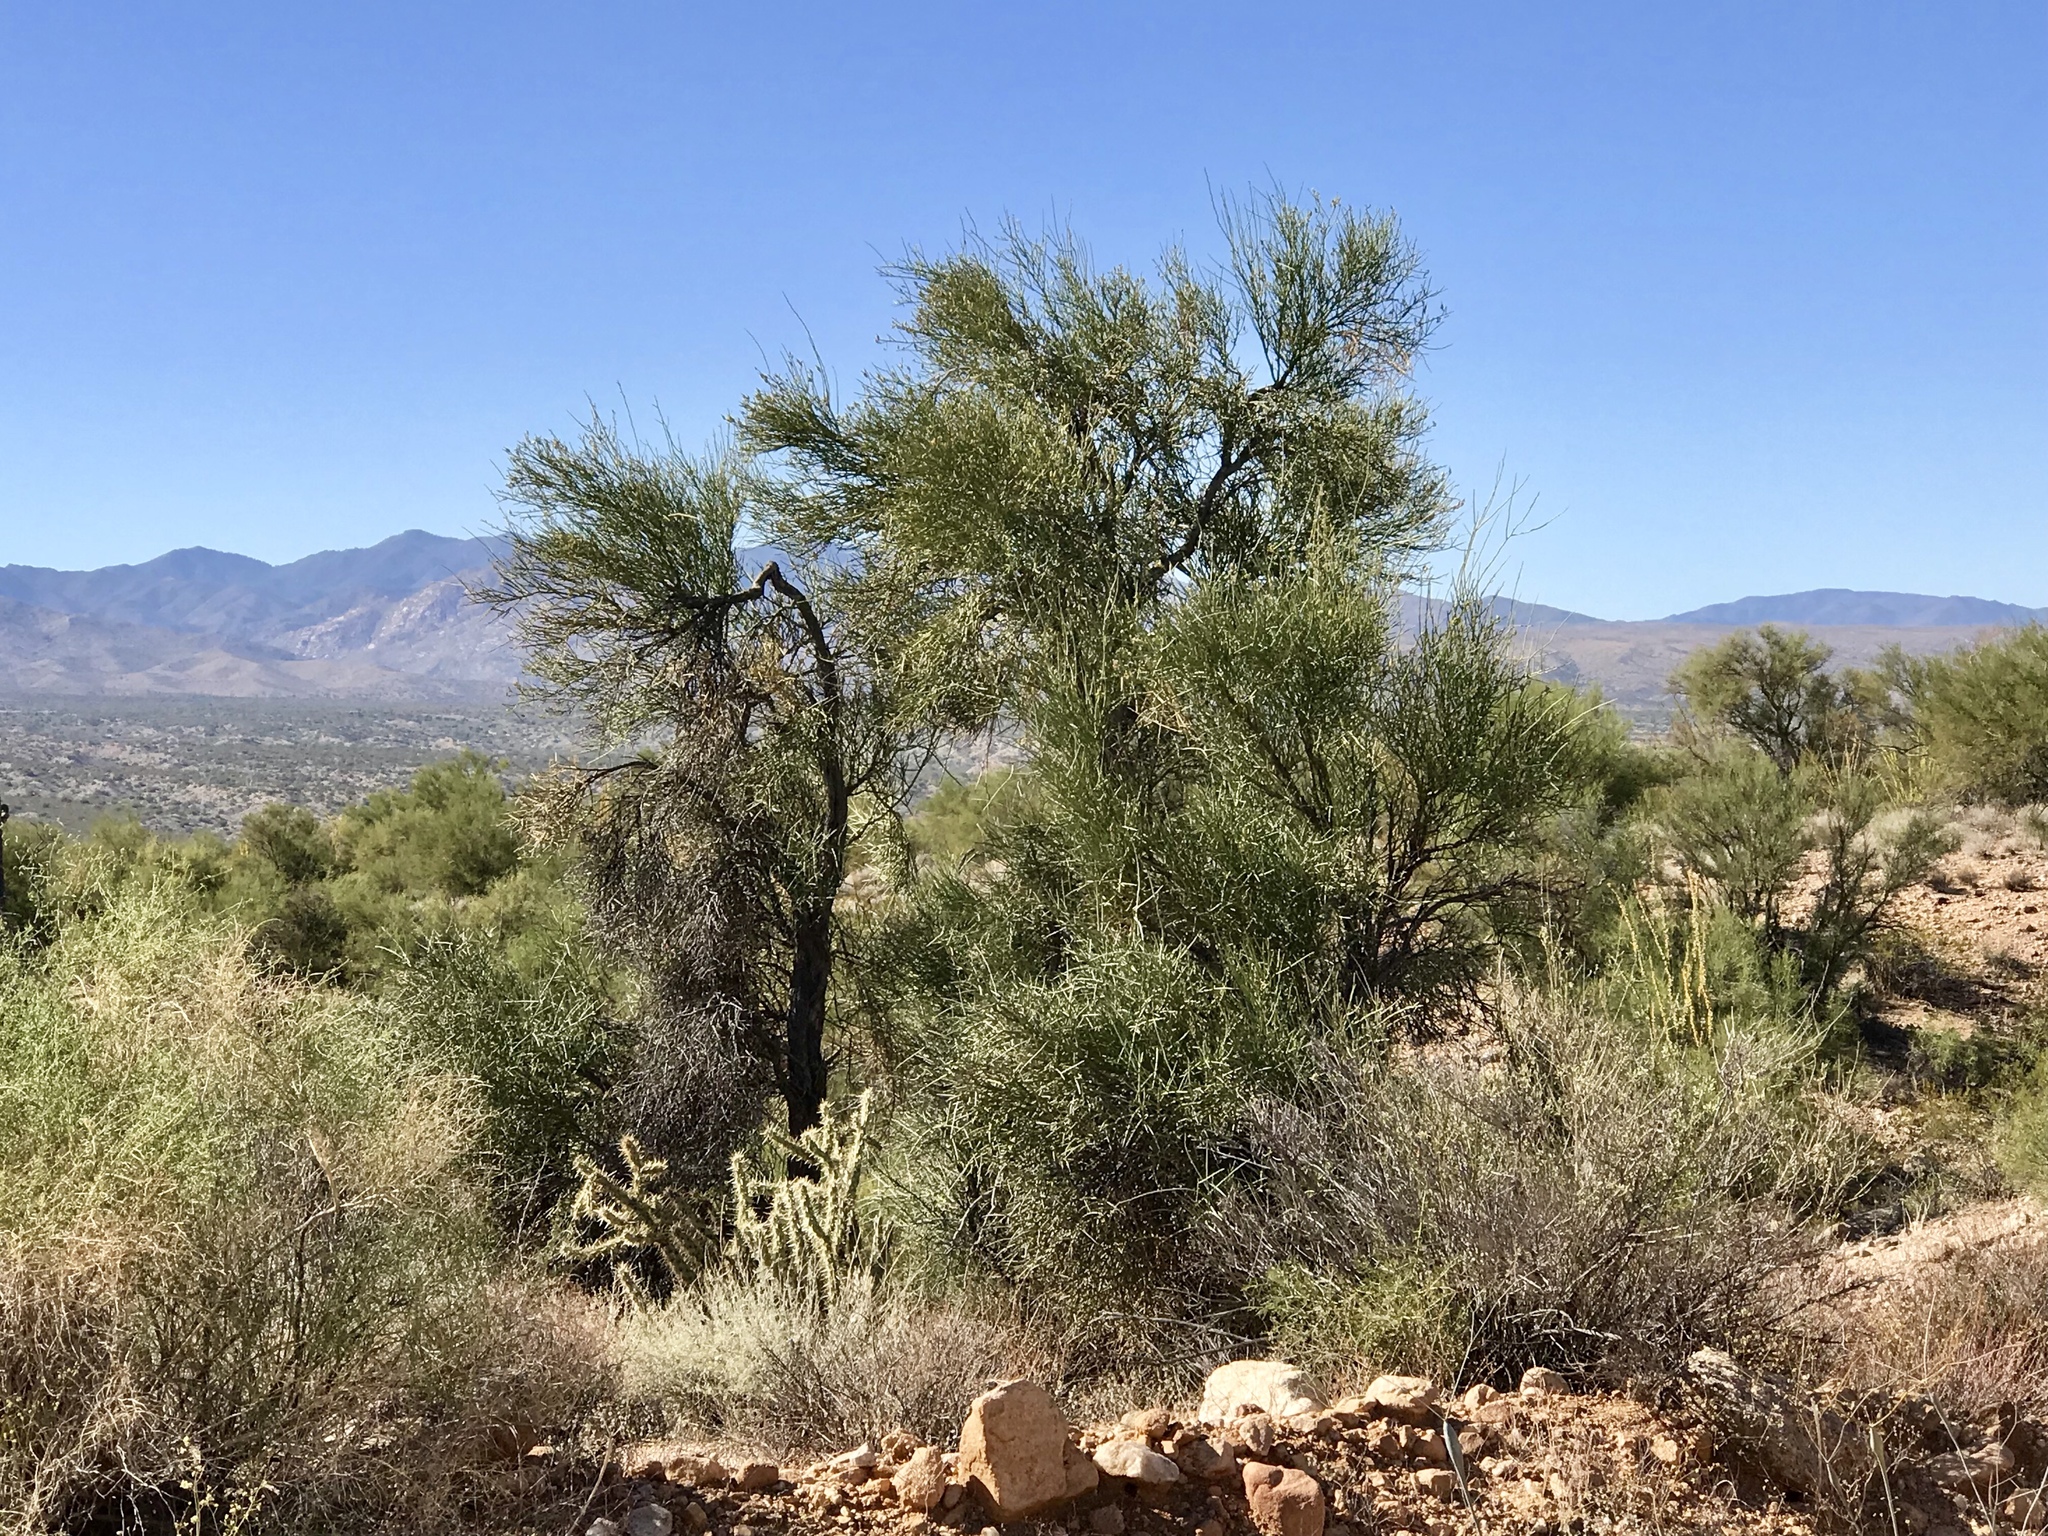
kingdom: Plantae
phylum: Tracheophyta
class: Magnoliopsida
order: Celastrales
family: Celastraceae
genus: Canotia
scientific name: Canotia holacantha
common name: Crucifixion thorns
